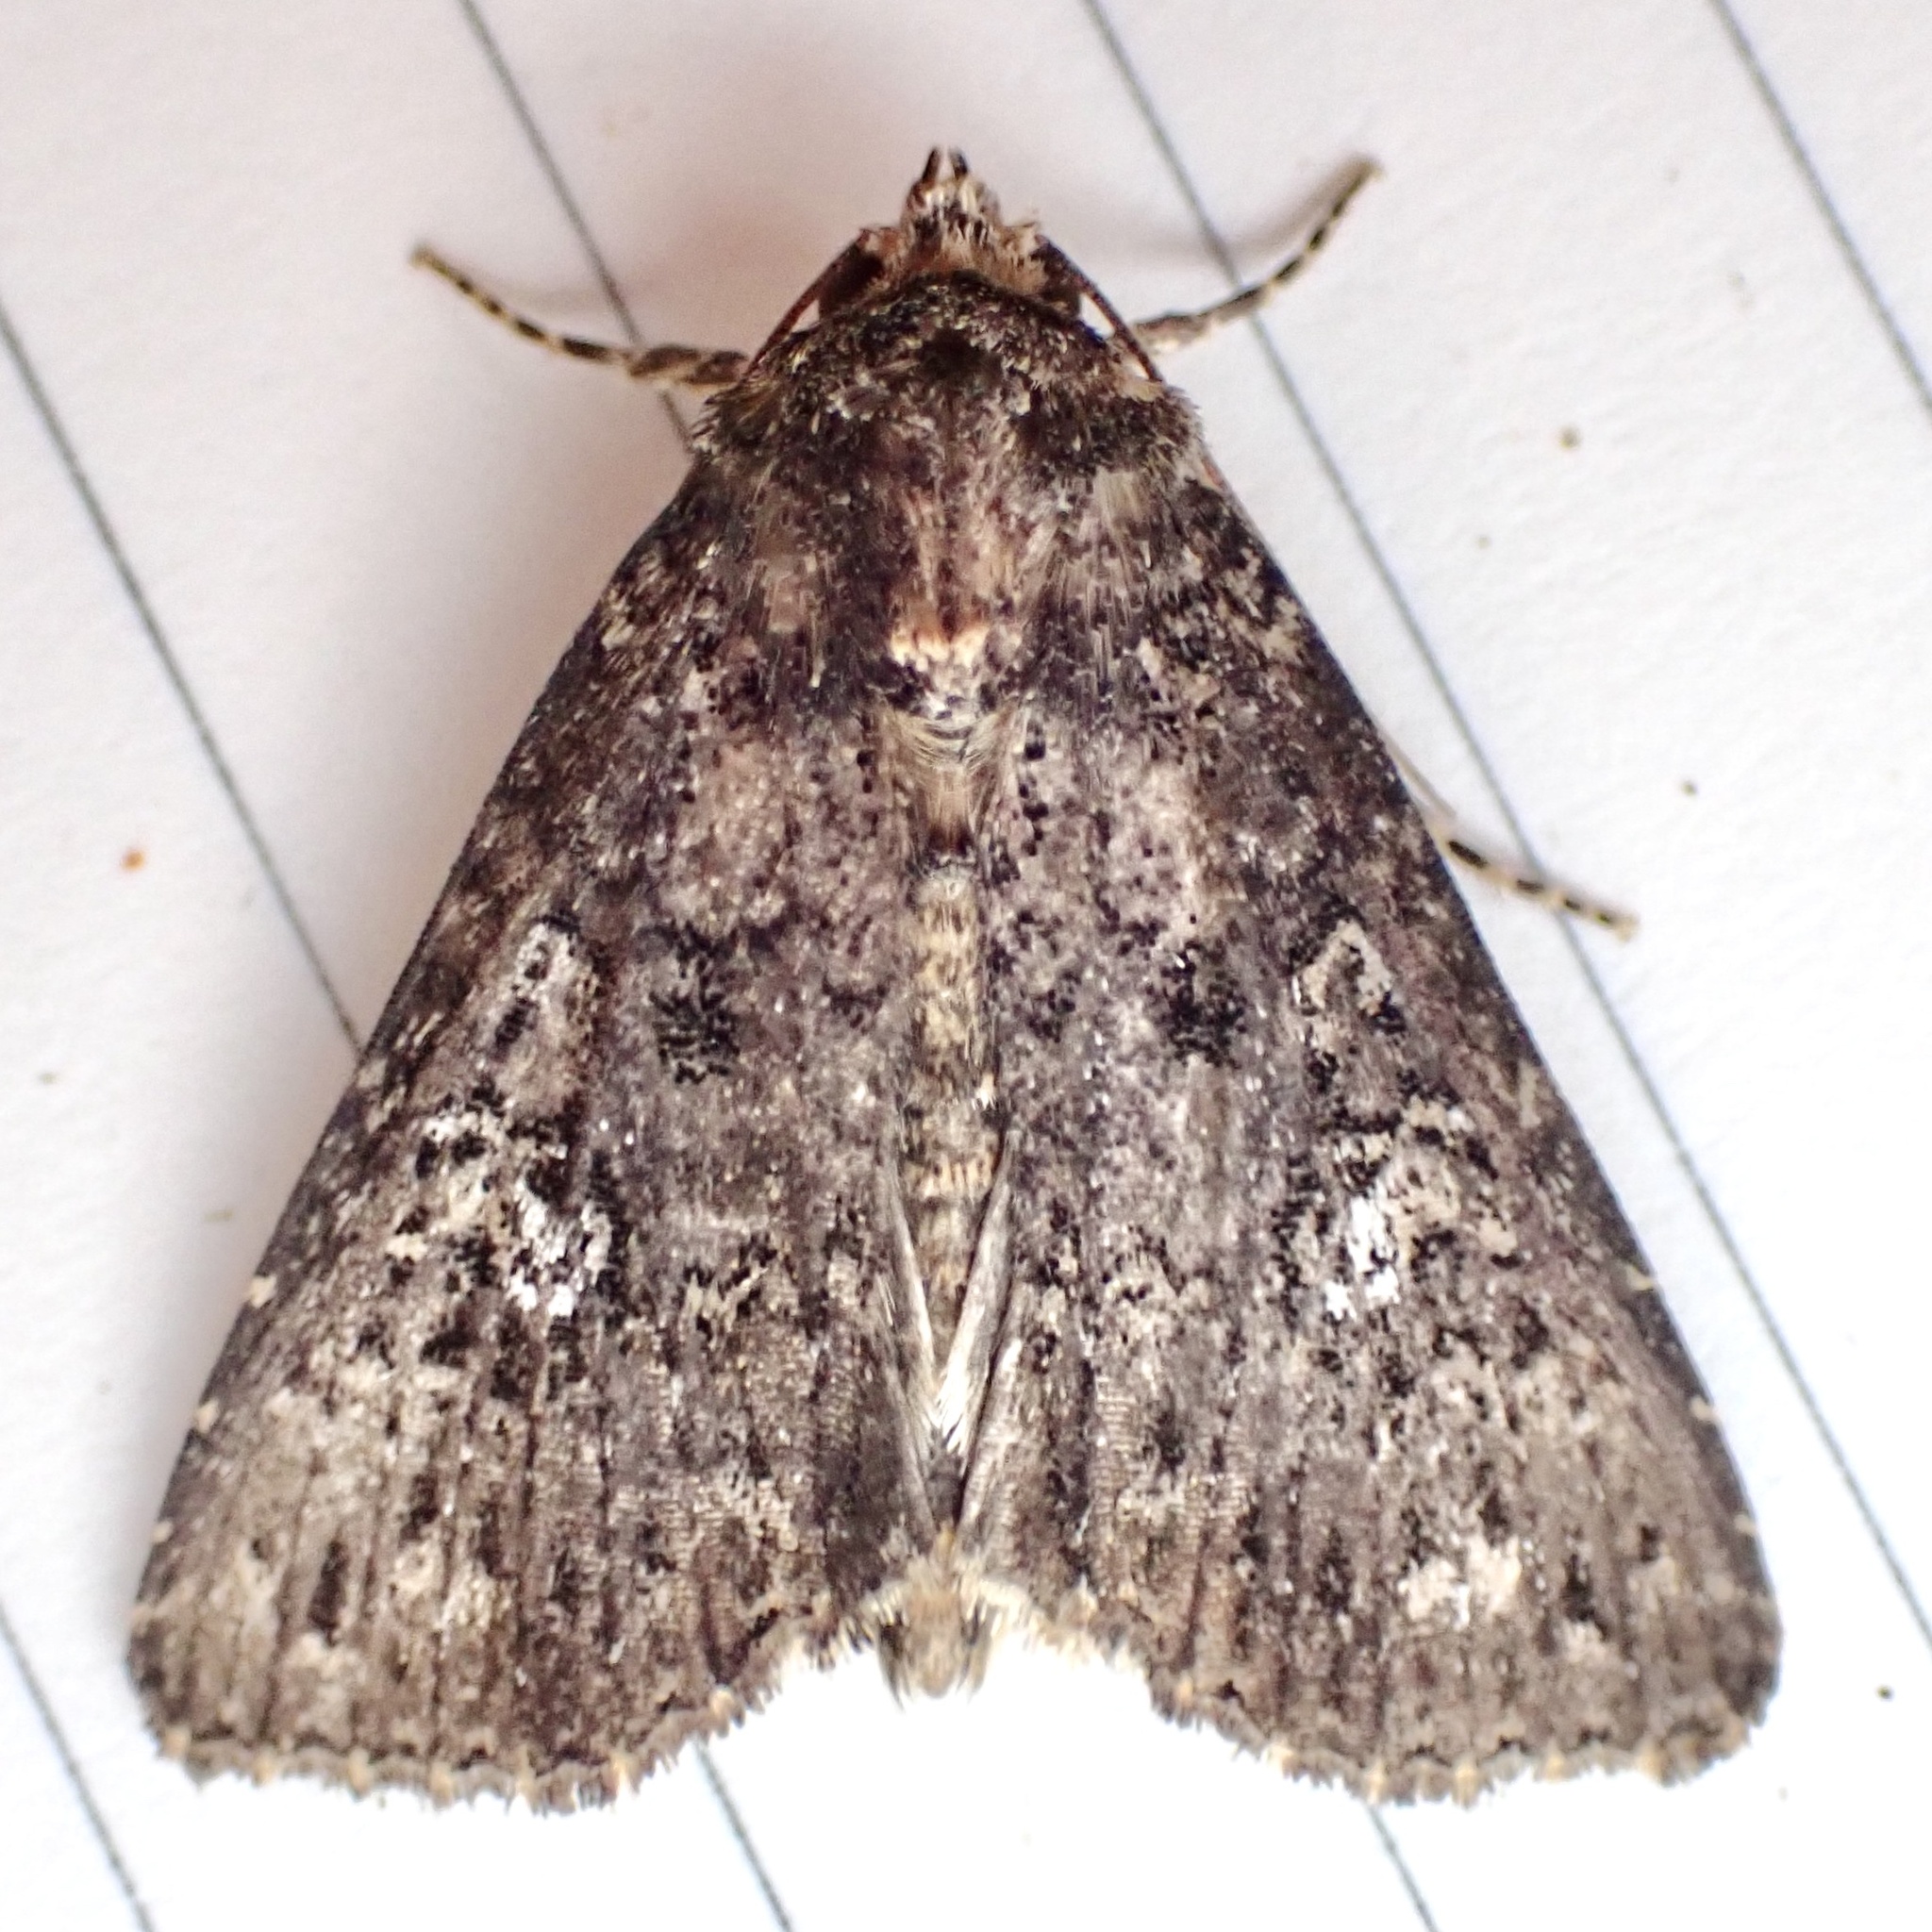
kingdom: Animalia
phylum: Arthropoda
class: Insecta
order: Lepidoptera
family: Noctuidae
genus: Condica
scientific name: Condica vecors
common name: Dusky groundling
